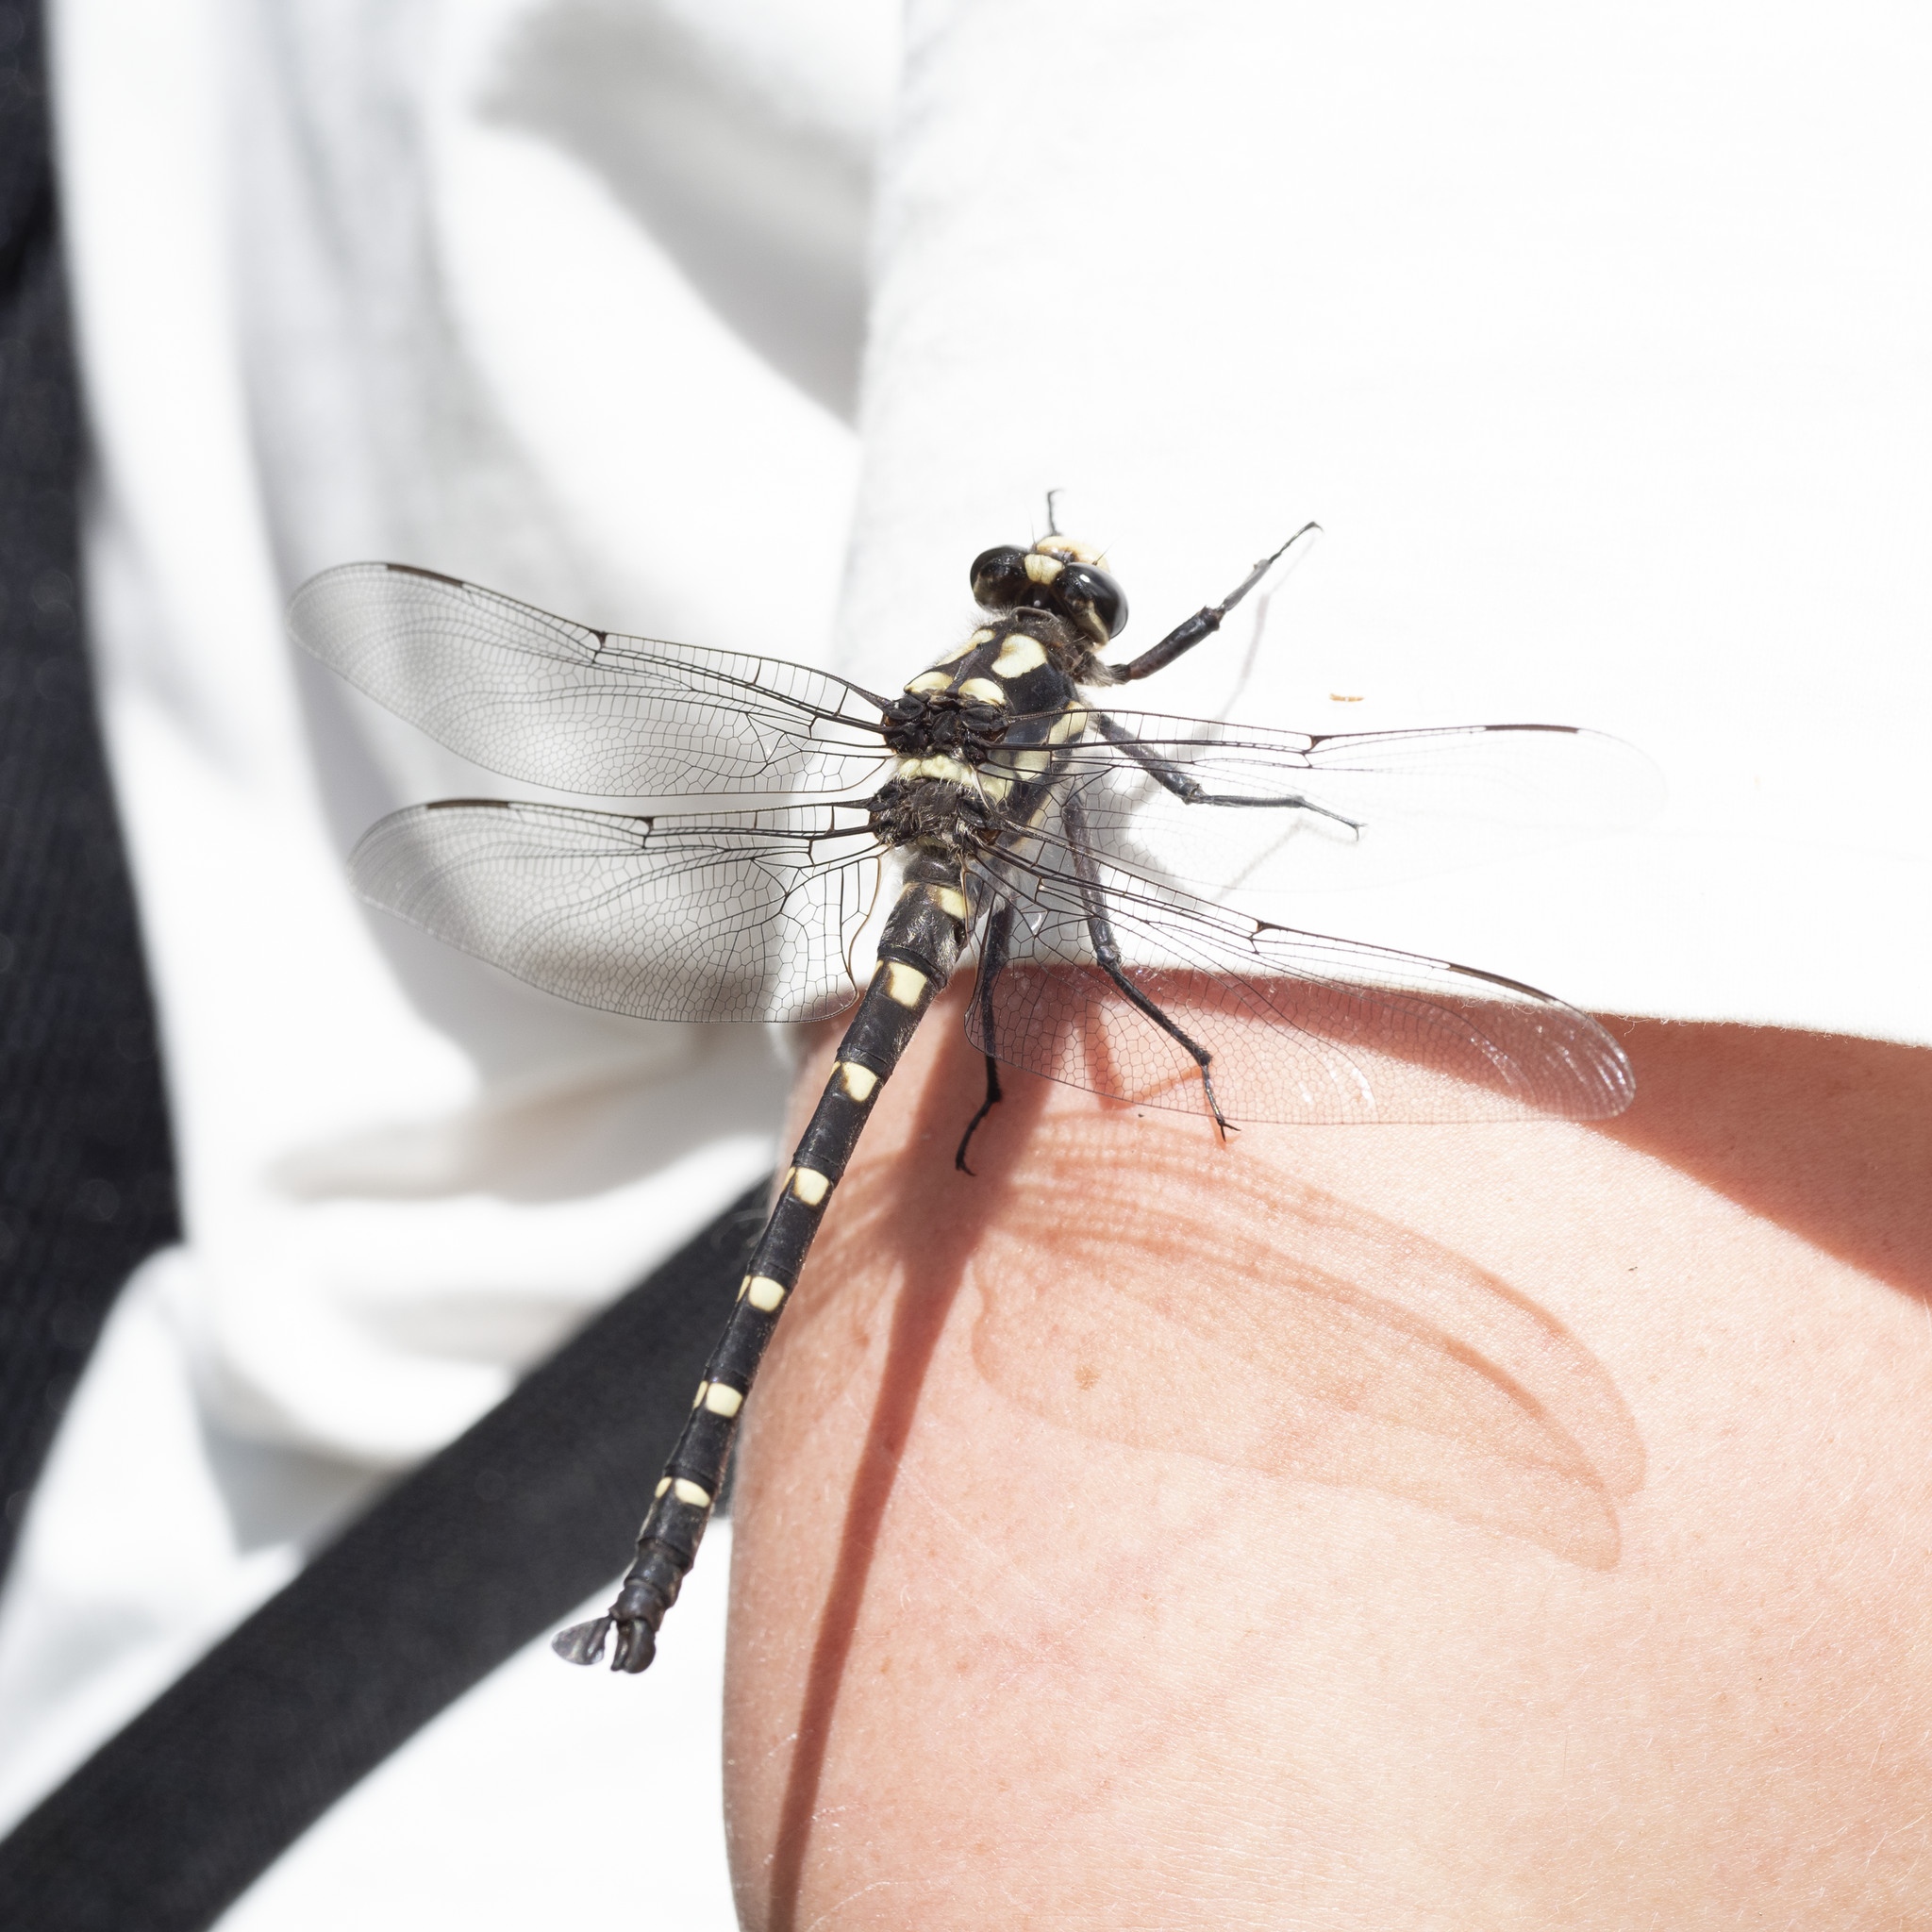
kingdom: Animalia
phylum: Arthropoda
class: Insecta
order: Odonata
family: Petaluridae
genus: Uropetala
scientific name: Uropetala chiltoni
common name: Mountain giant dragonfly
